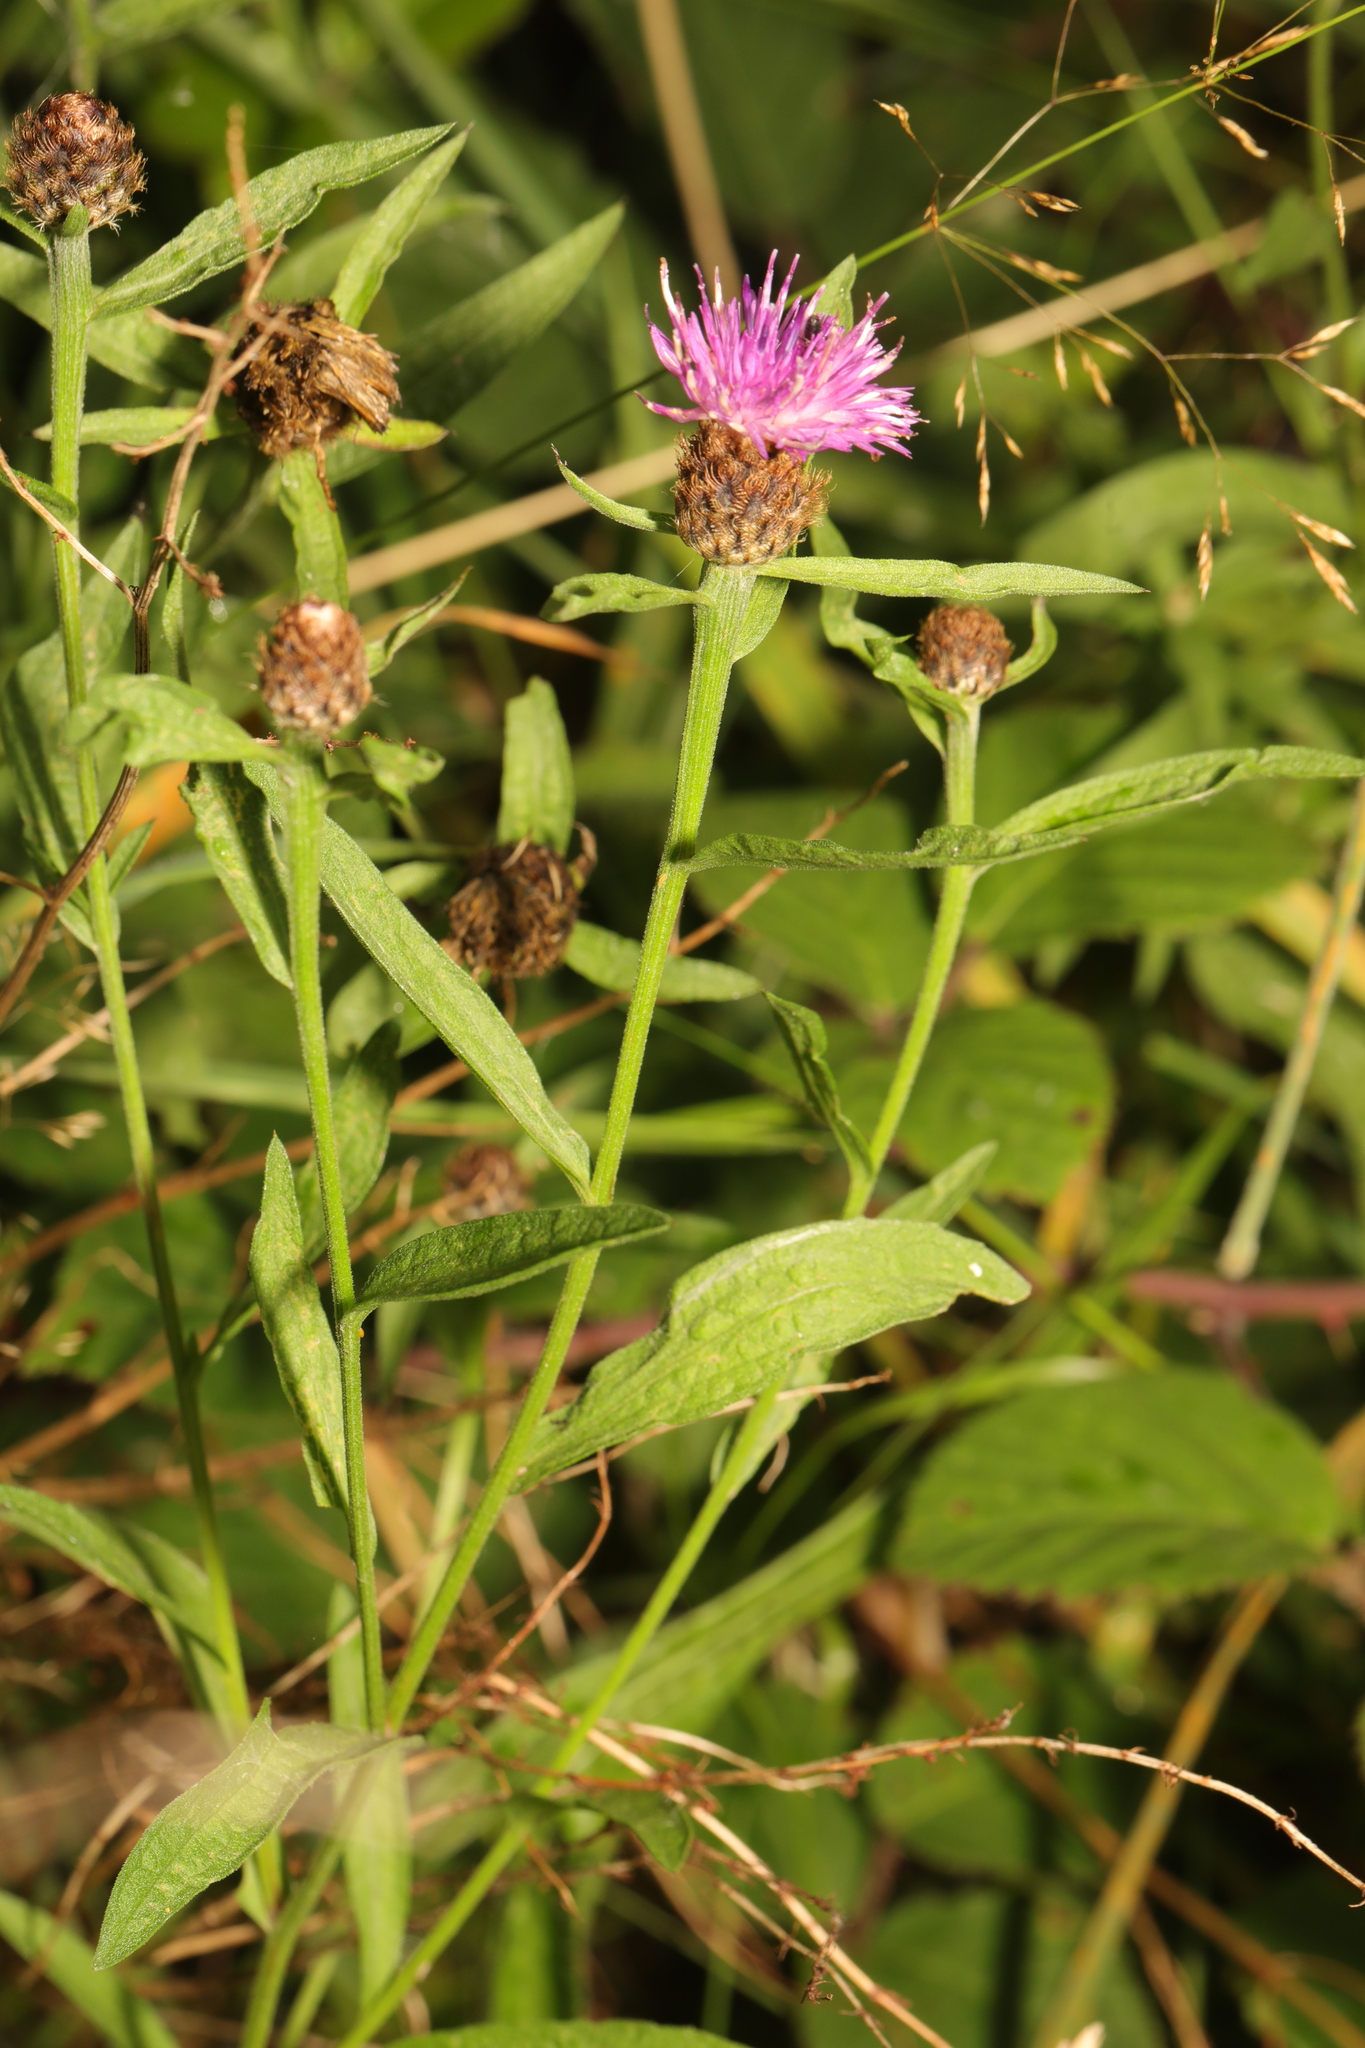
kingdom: Plantae
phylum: Tracheophyta
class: Magnoliopsida
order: Asterales
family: Asteraceae
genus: Centaurea
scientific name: Centaurea nigra
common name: Lesser knapweed
